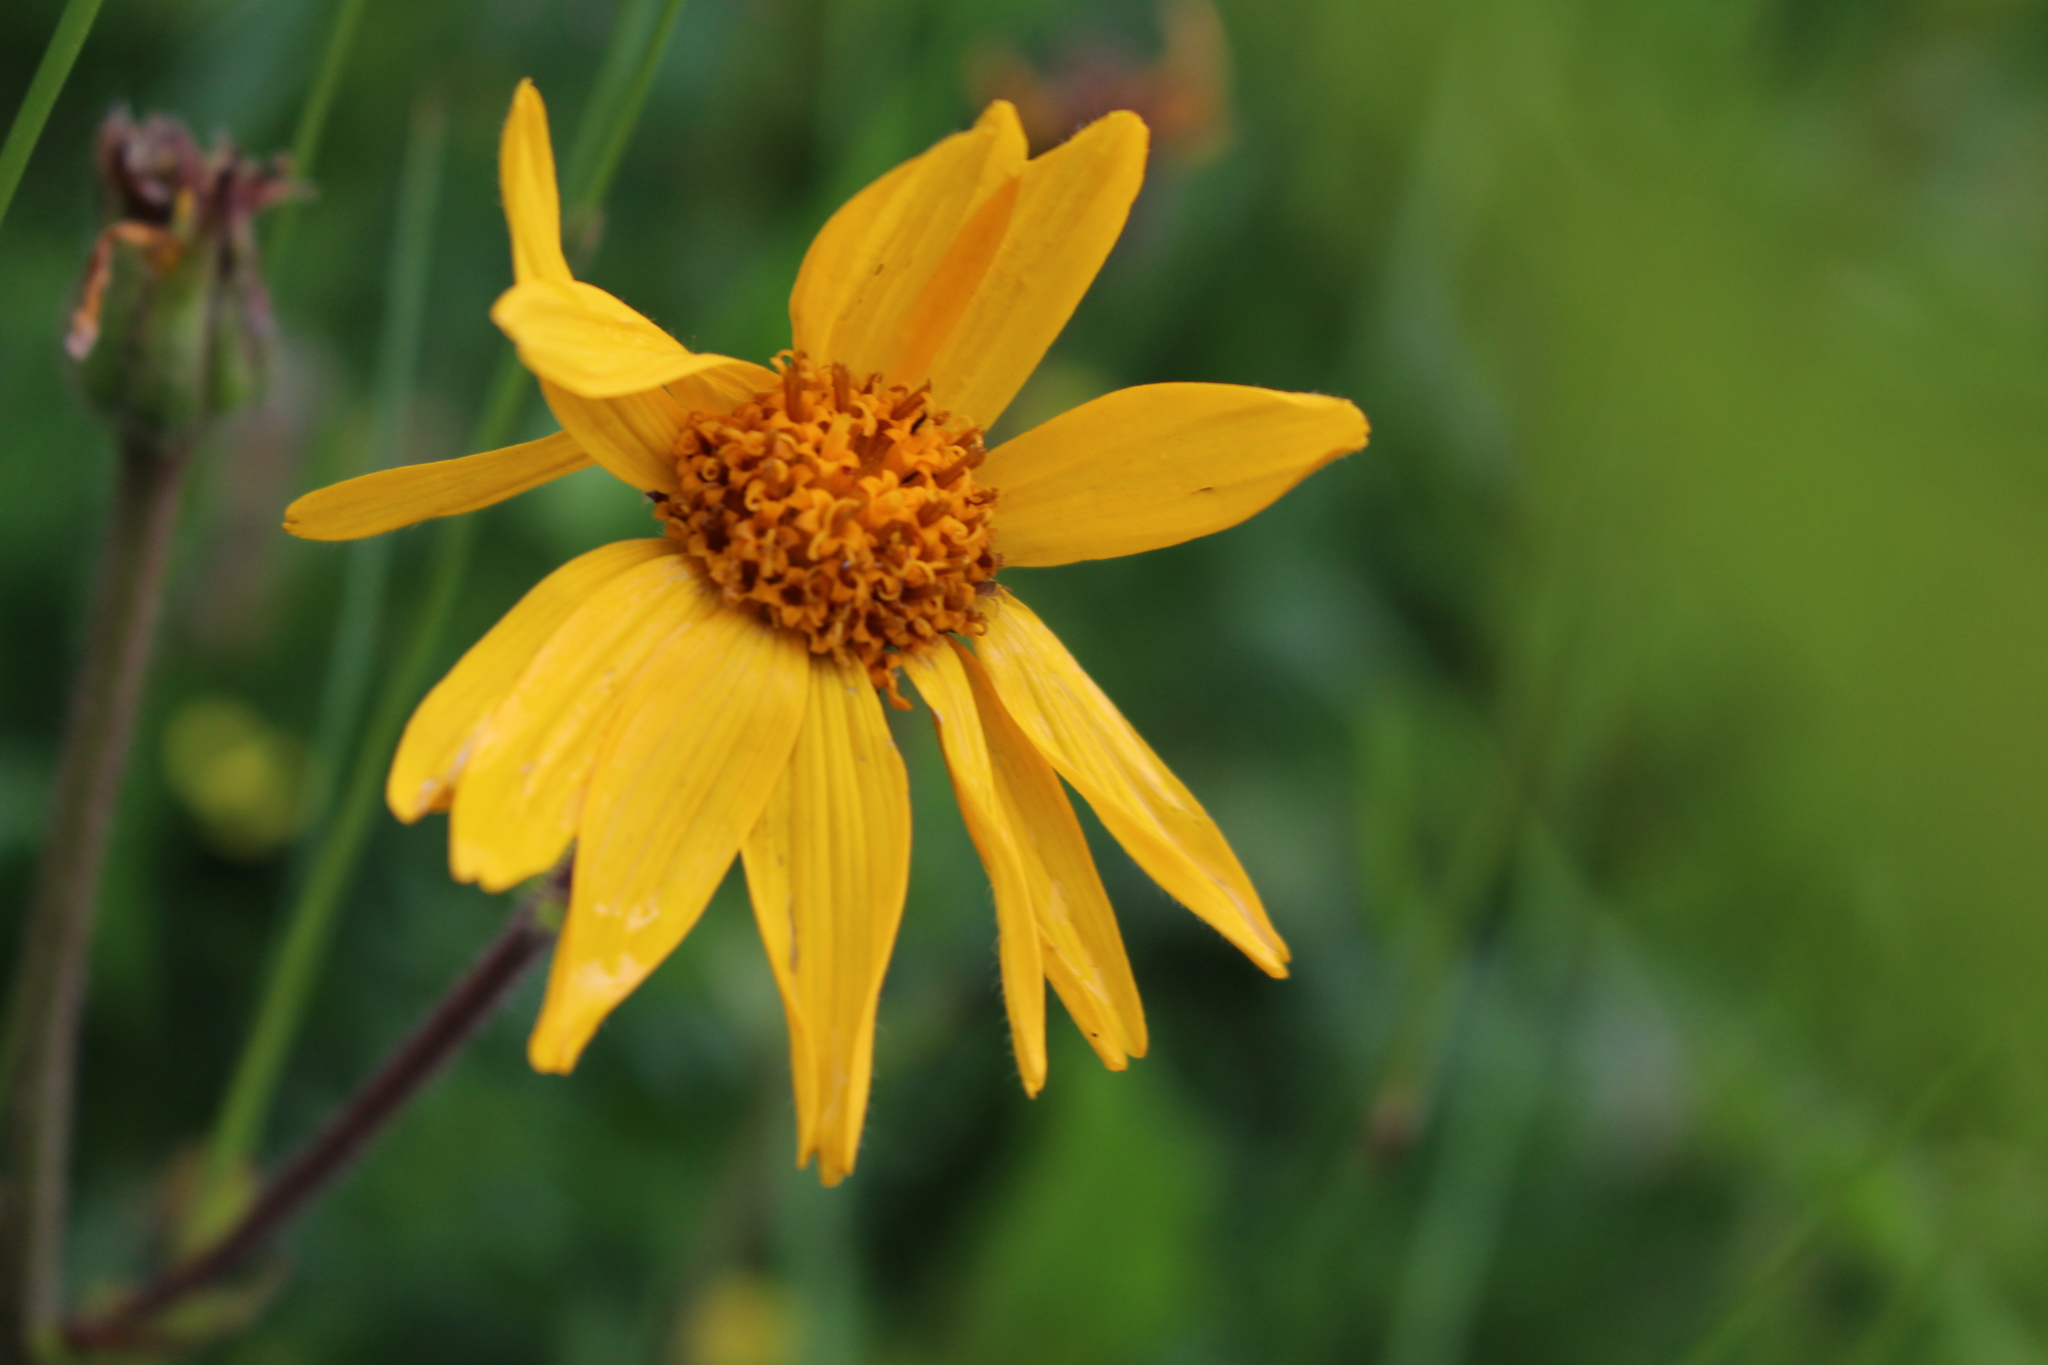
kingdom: Plantae
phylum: Tracheophyta
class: Magnoliopsida
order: Asterales
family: Asteraceae
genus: Arnica
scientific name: Arnica montana
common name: Leopard's bane
